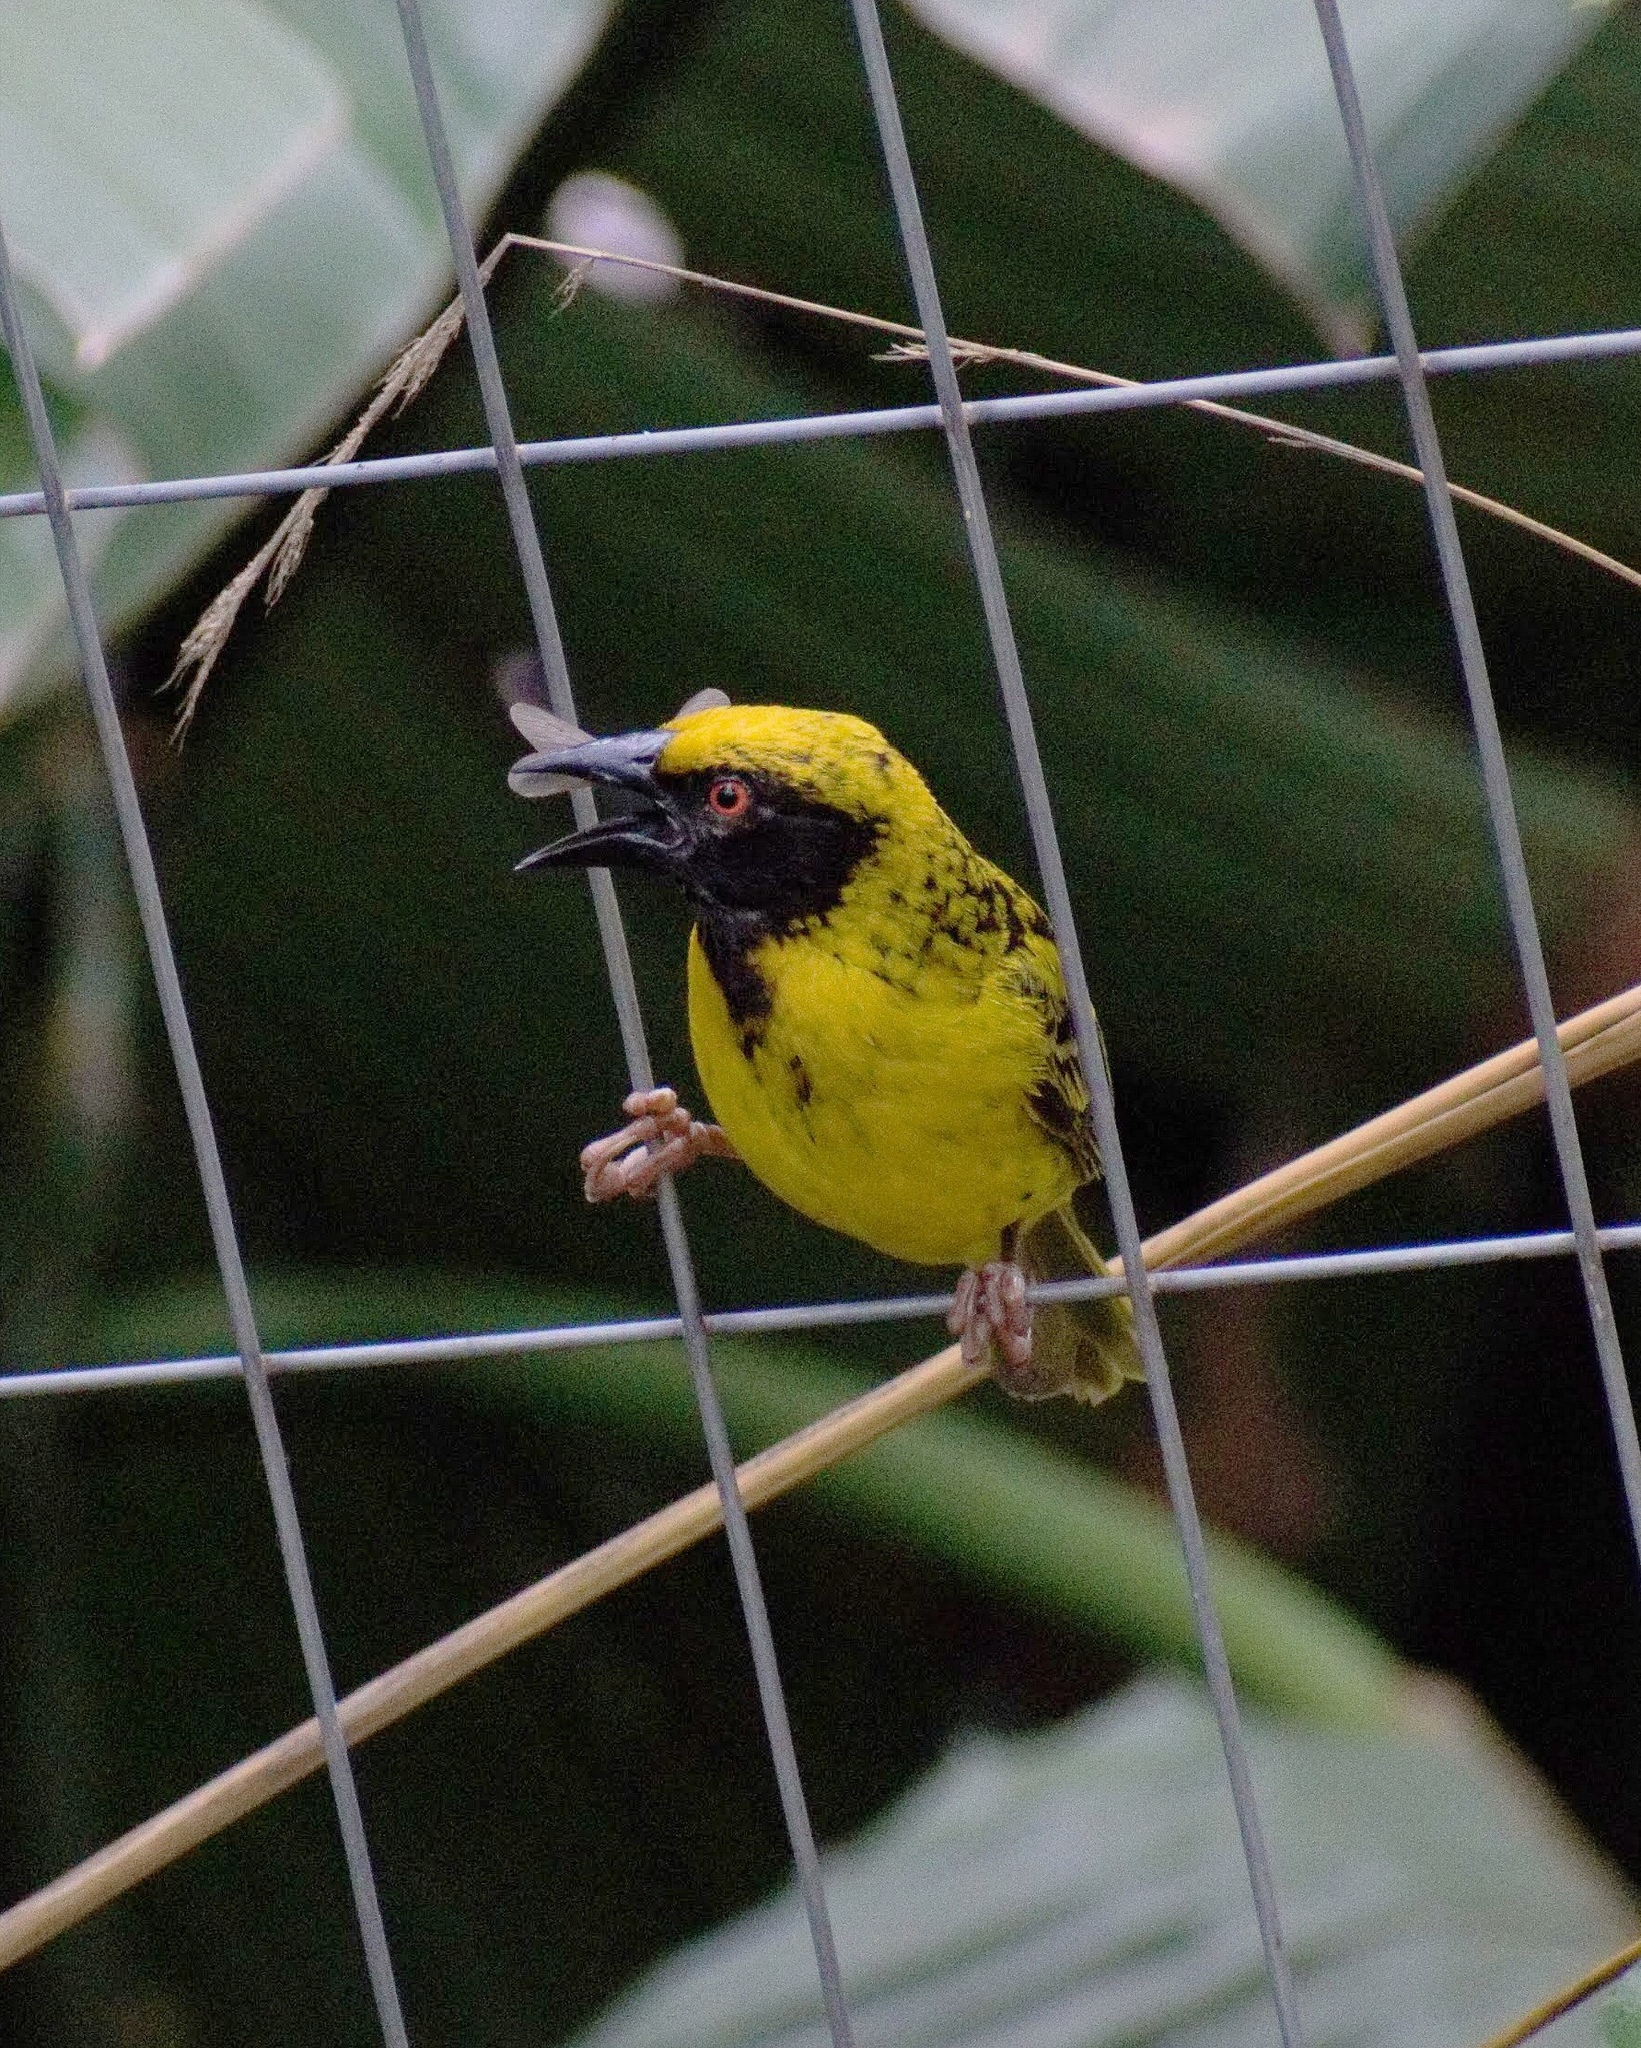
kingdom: Animalia
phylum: Chordata
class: Aves
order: Passeriformes
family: Ploceidae
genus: Ploceus
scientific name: Ploceus cucullatus
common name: Village weaver
